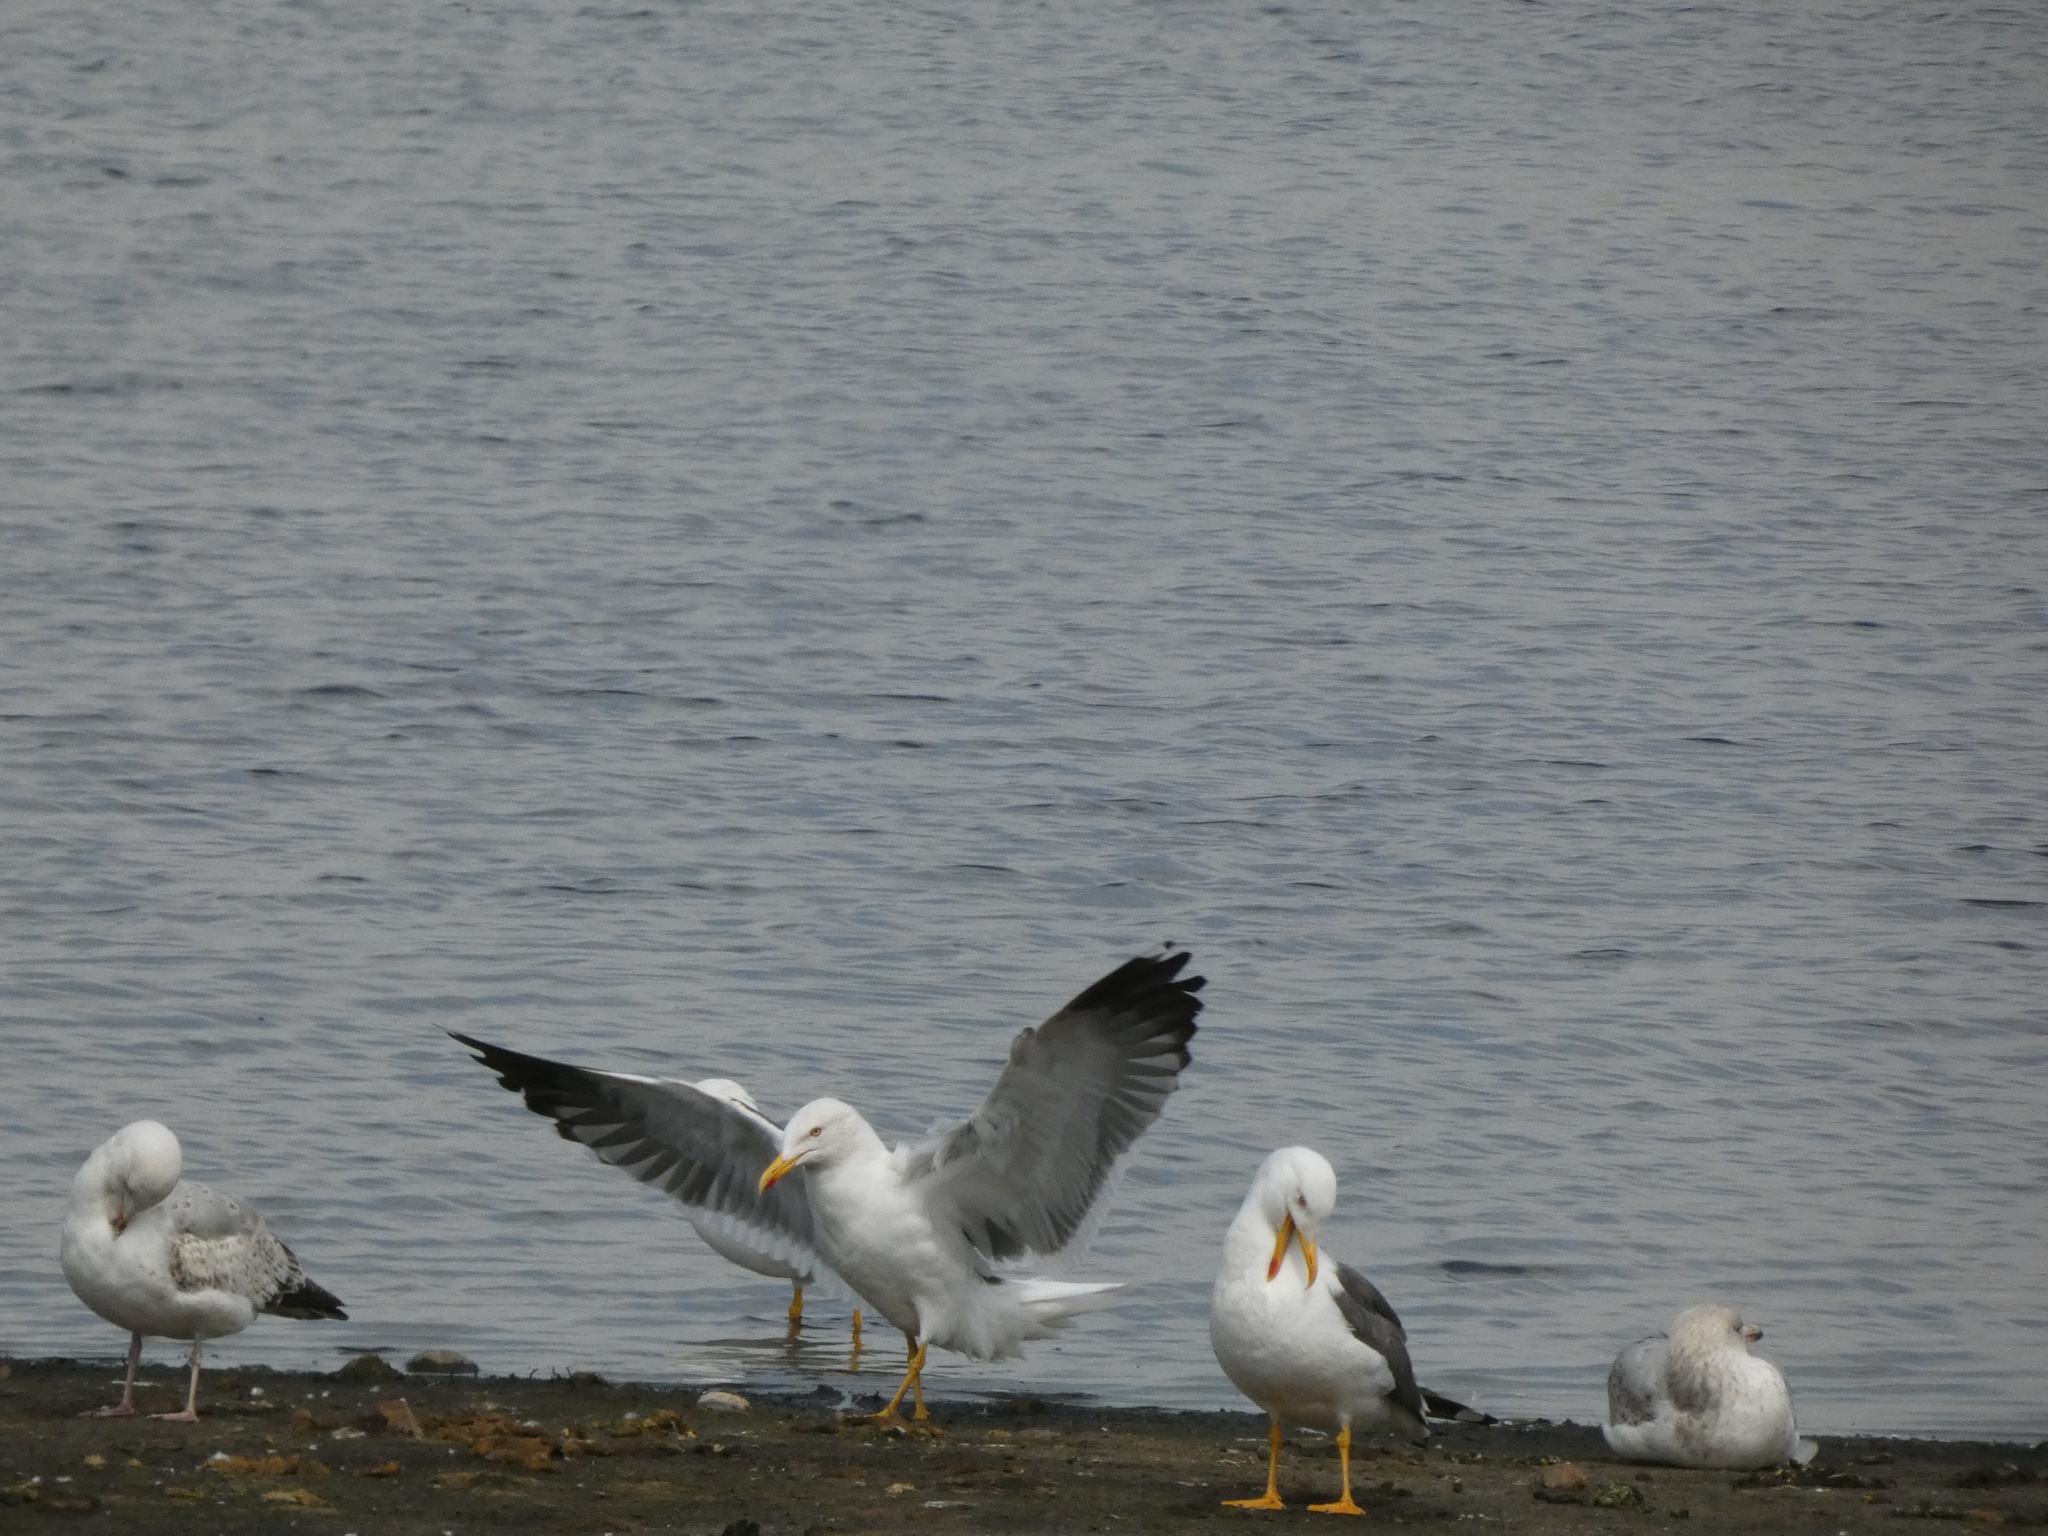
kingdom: Animalia
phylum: Chordata
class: Aves
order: Charadriiformes
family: Laridae
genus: Larus
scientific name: Larus fuscus
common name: Lesser black-backed gull
